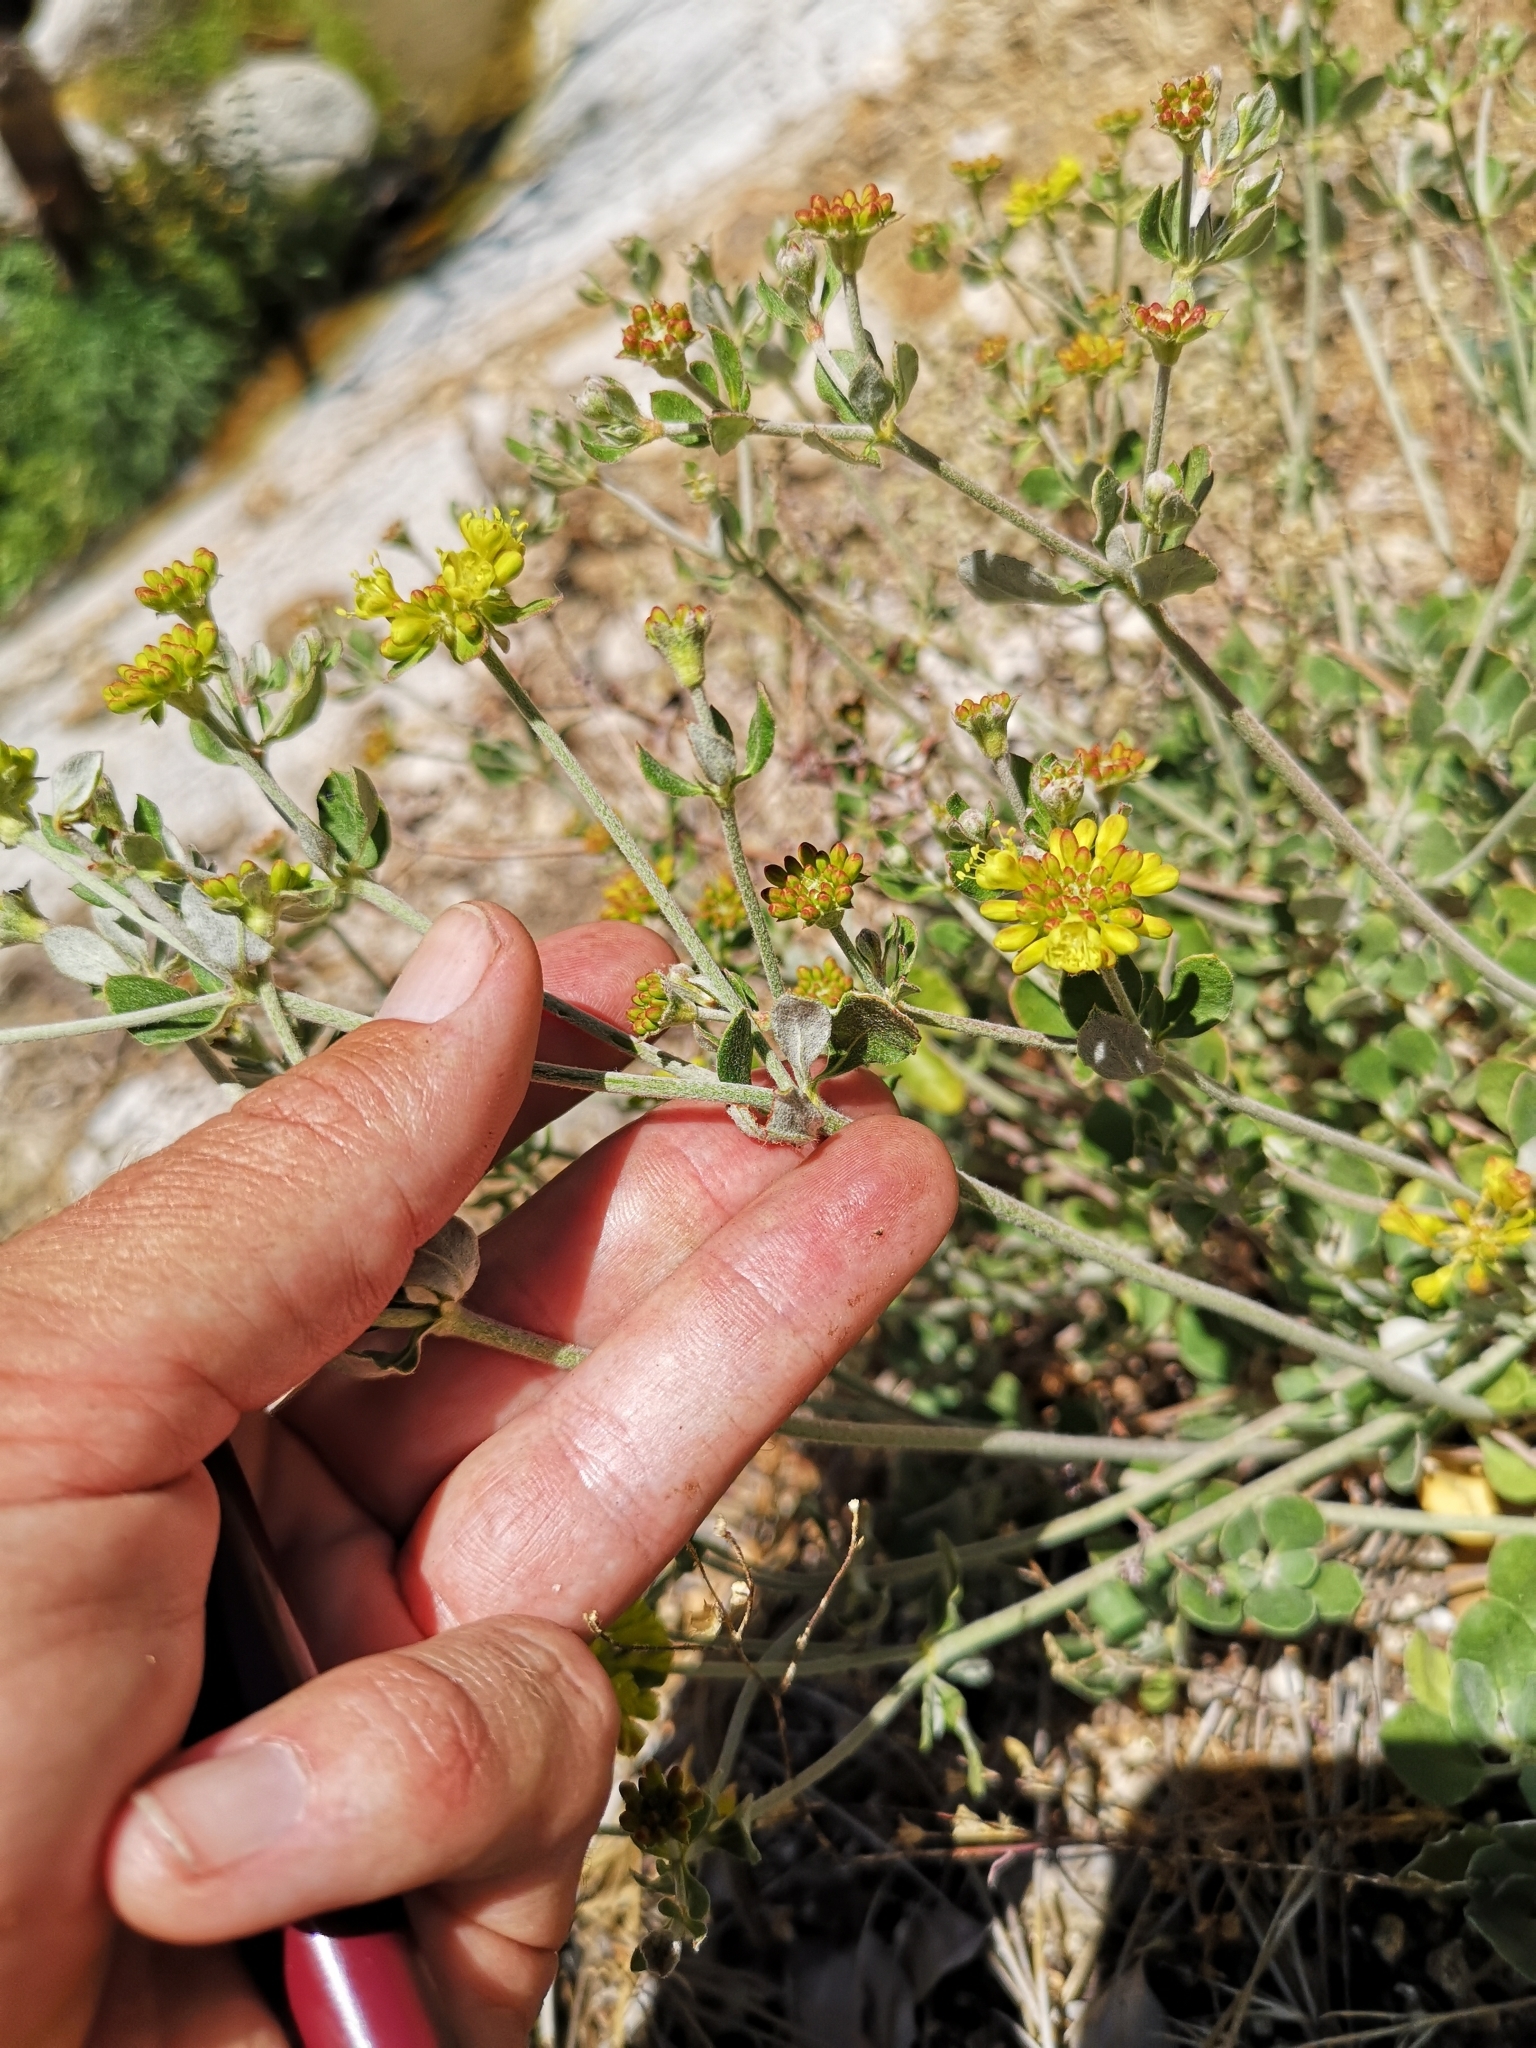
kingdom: Plantae
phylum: Tracheophyta
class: Magnoliopsida
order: Caryophyllales
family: Polygonaceae
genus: Eriogonum
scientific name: Eriogonum umbellatum
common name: Sulfur-buckwheat
